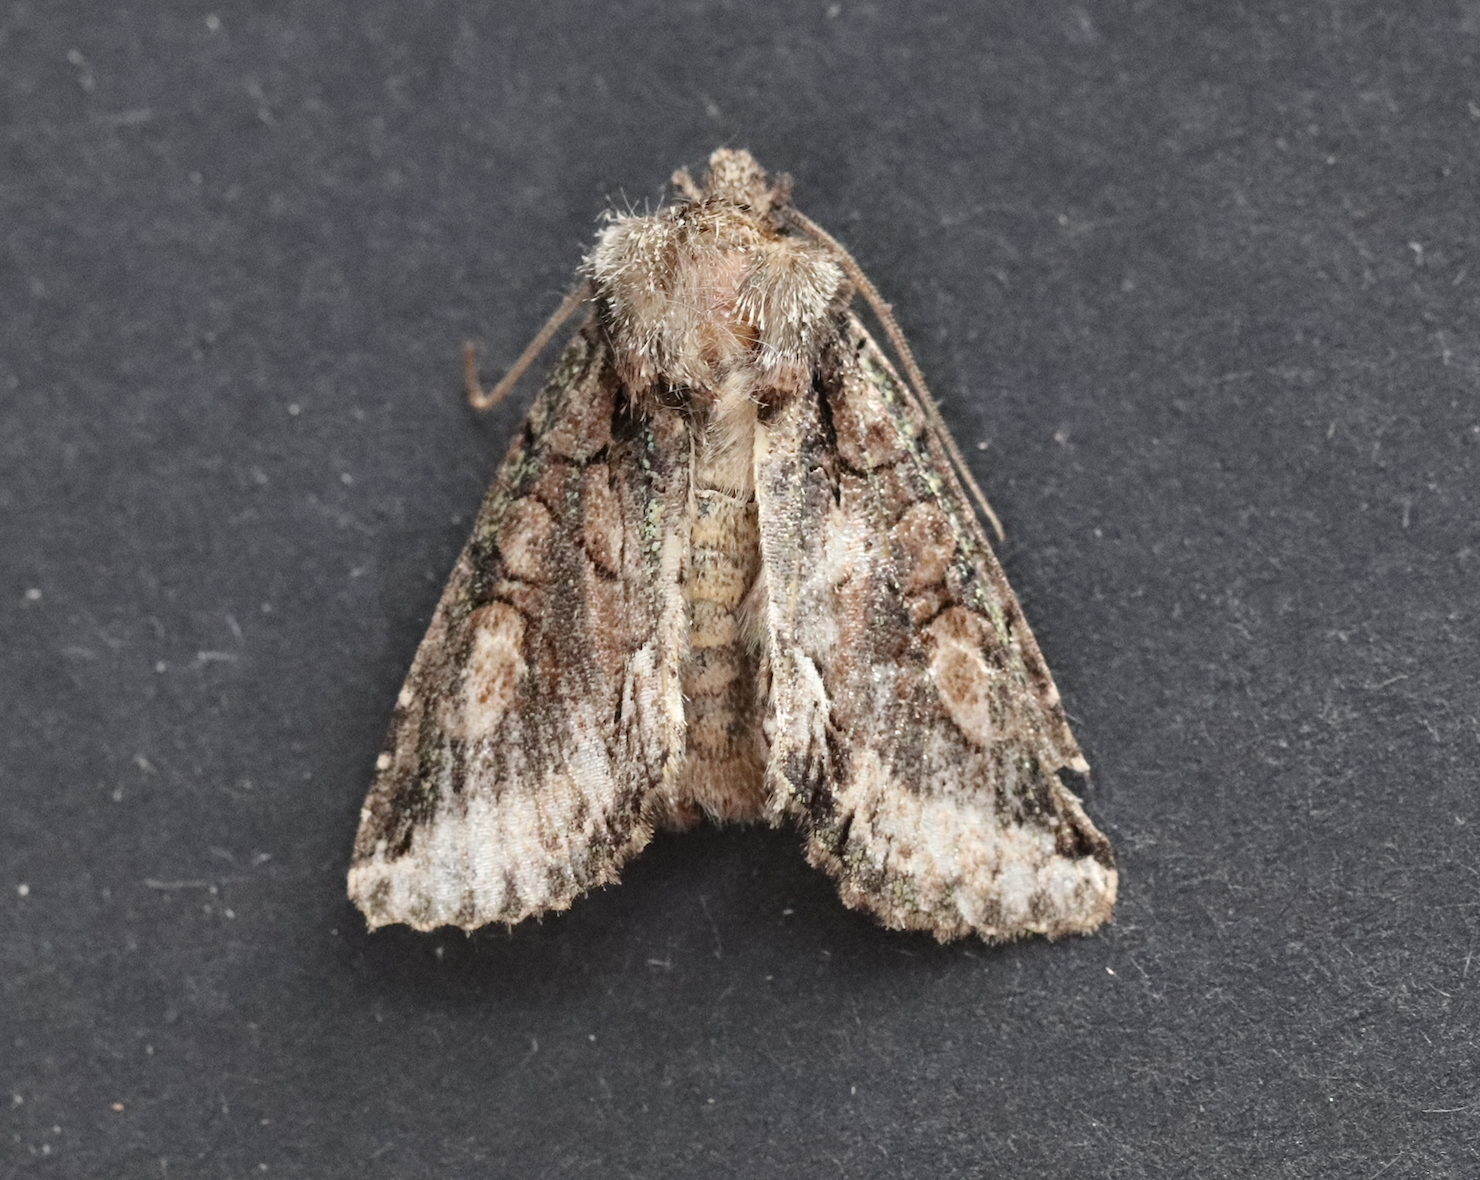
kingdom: Animalia
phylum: Arthropoda
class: Insecta
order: Lepidoptera
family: Noctuidae
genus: Allophyes
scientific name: Allophyes oxyacanthae
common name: Green-brindled crescent
